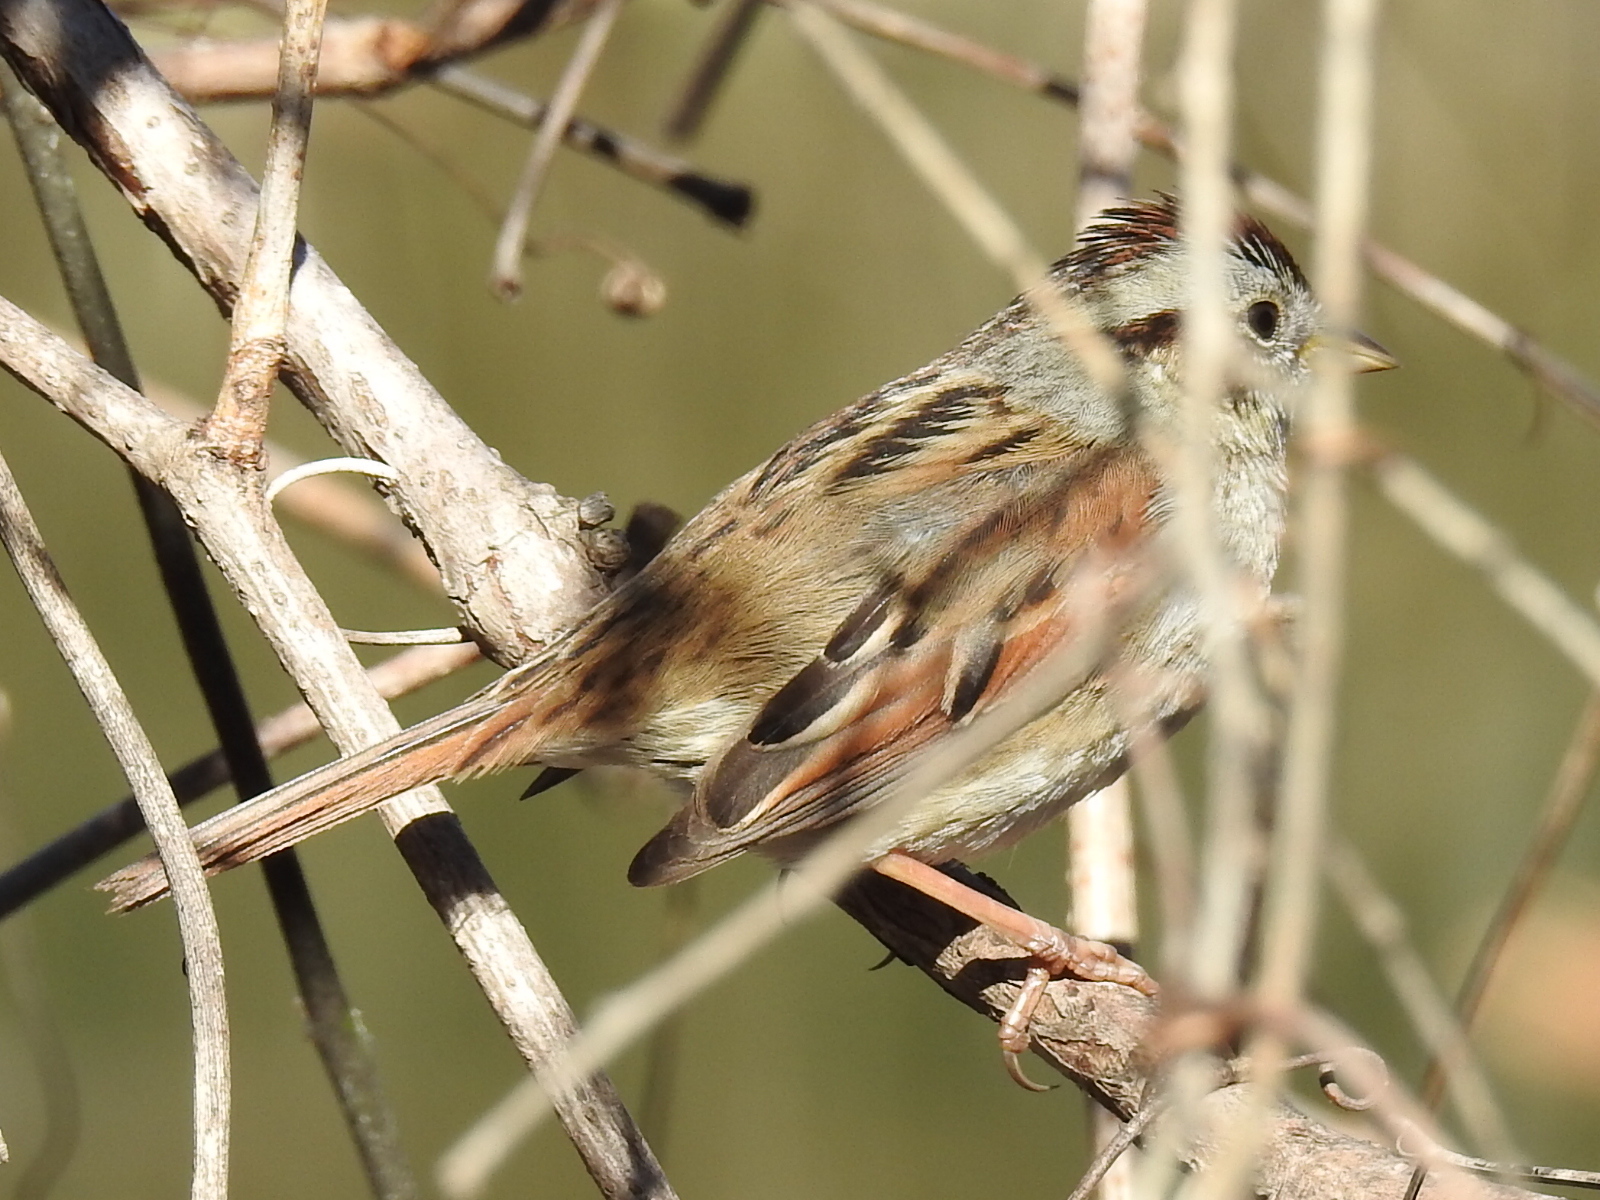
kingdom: Animalia
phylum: Chordata
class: Aves
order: Passeriformes
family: Passerellidae
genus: Melospiza
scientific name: Melospiza georgiana
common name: Swamp sparrow
